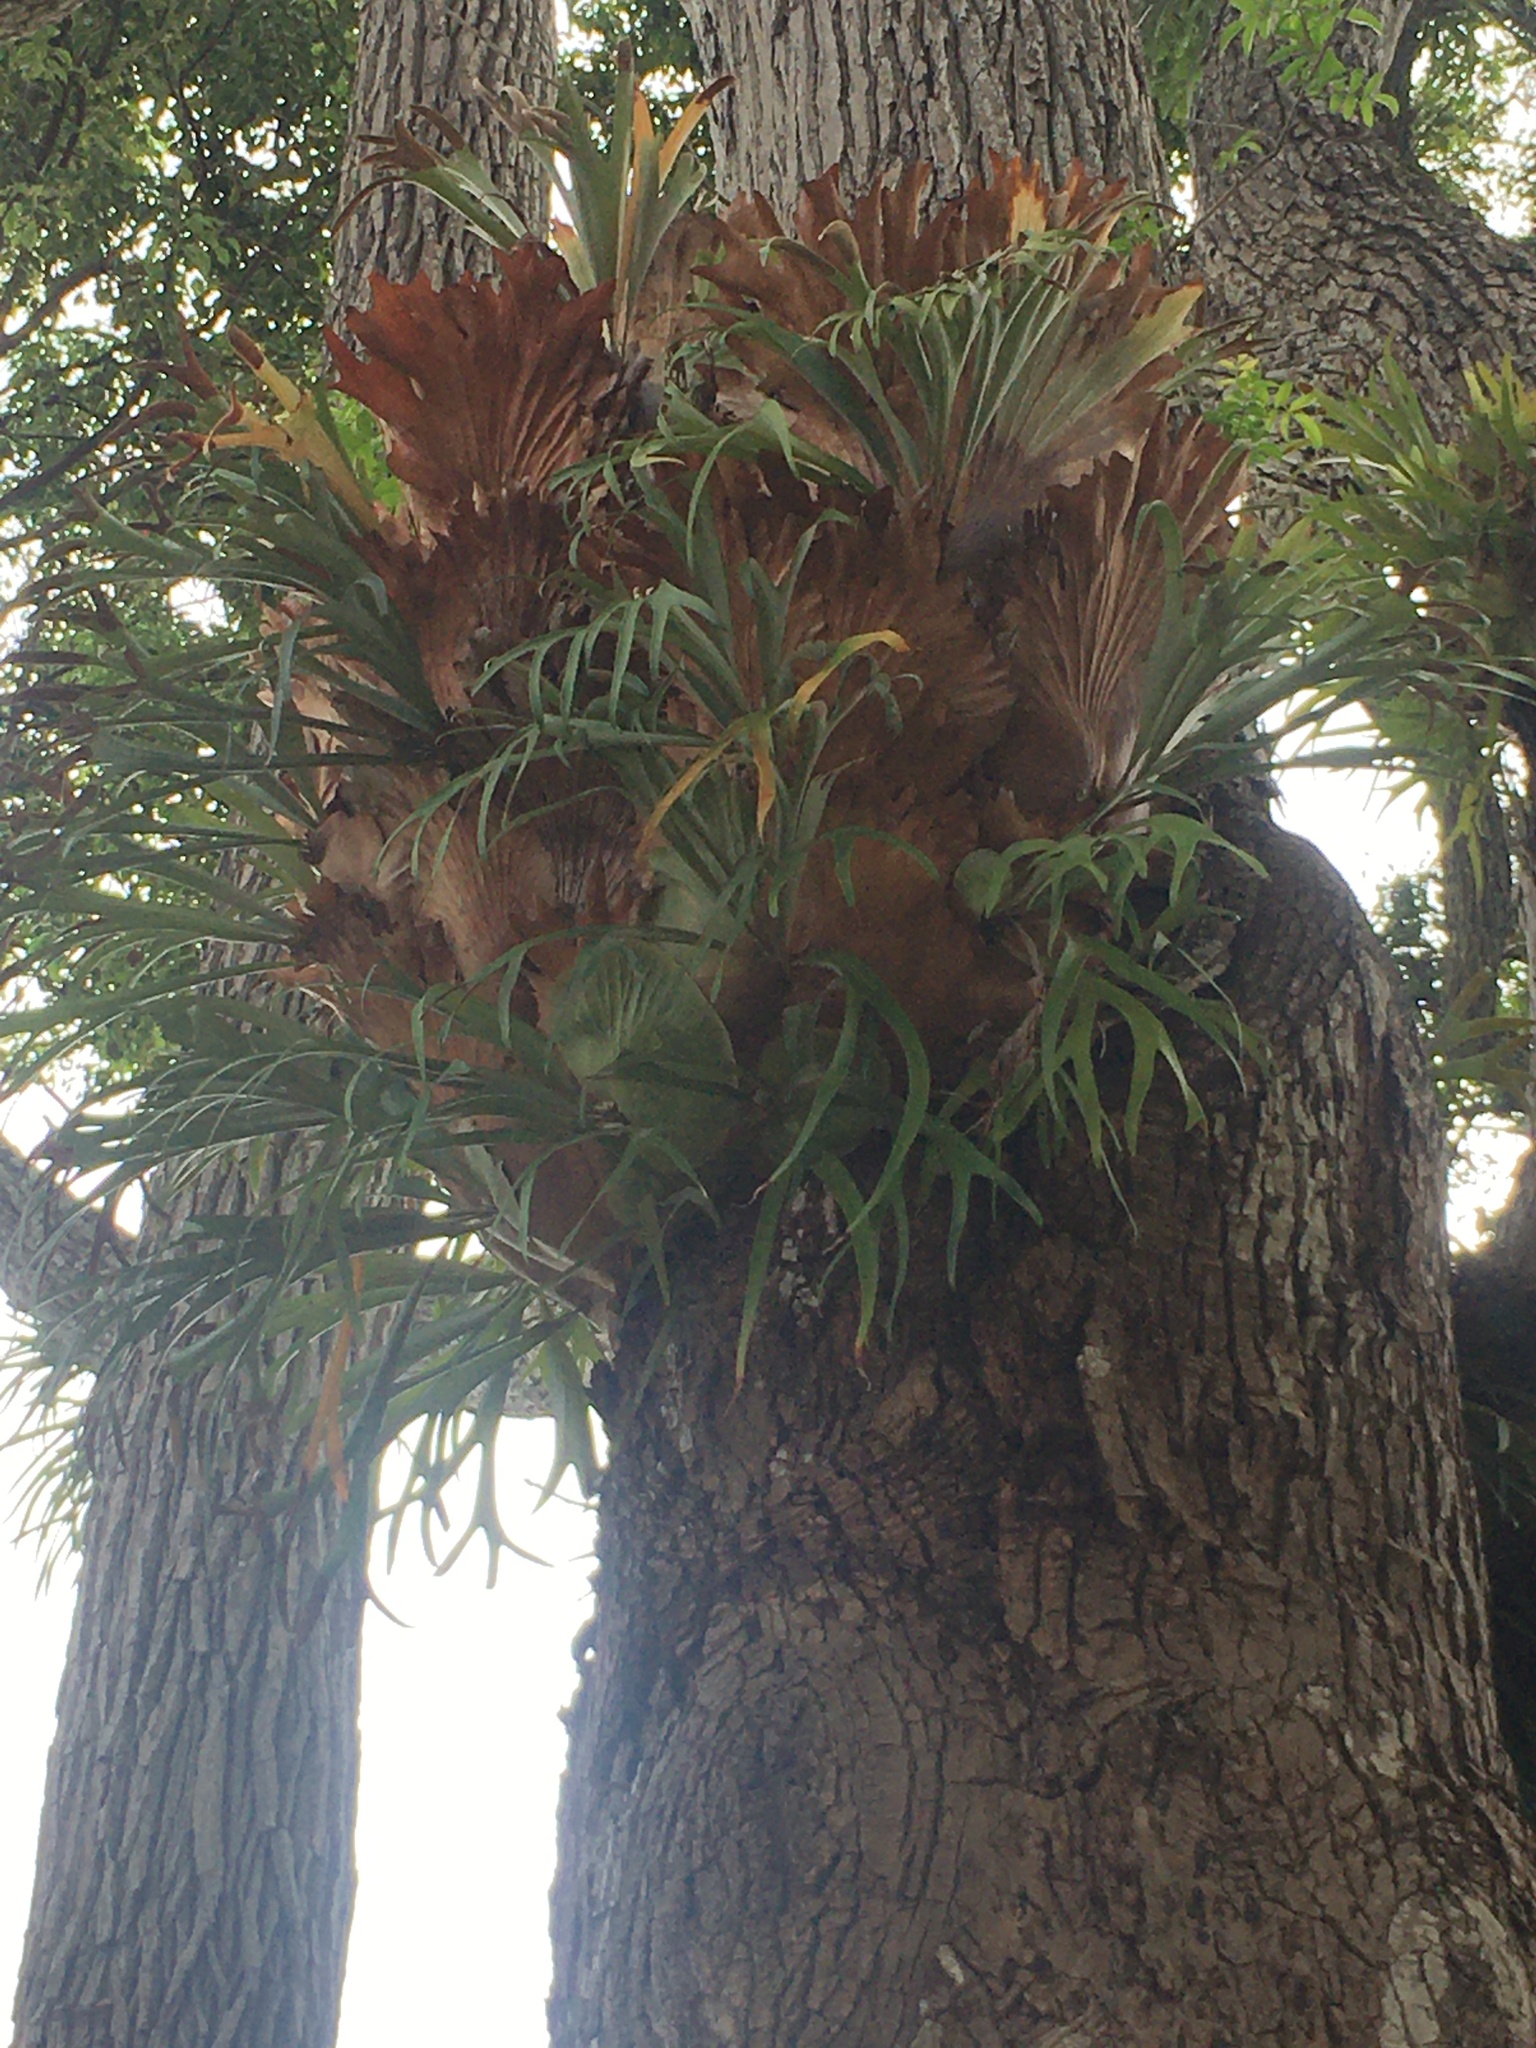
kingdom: Plantae
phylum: Tracheophyta
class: Polypodiopsida
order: Polypodiales
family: Polypodiaceae
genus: Platycerium
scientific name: Platycerium bifurcatum
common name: Elkhorn fern
